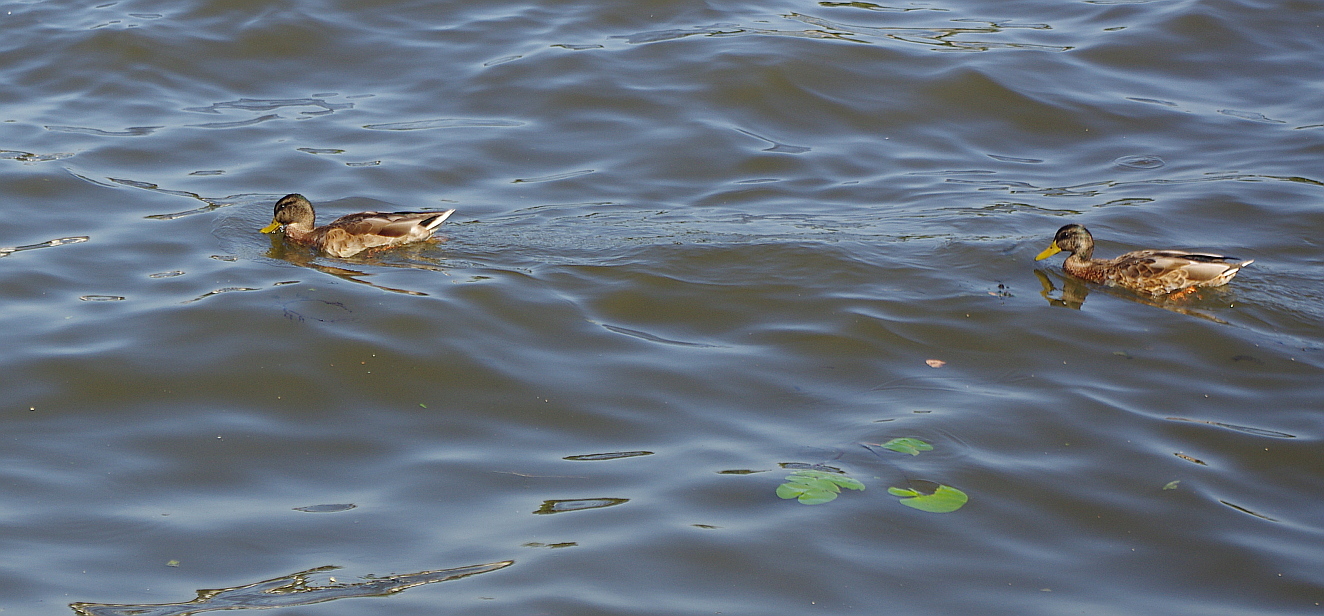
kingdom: Animalia
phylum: Chordata
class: Aves
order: Anseriformes
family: Anatidae
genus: Anas
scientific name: Anas platyrhynchos
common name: Mallard
